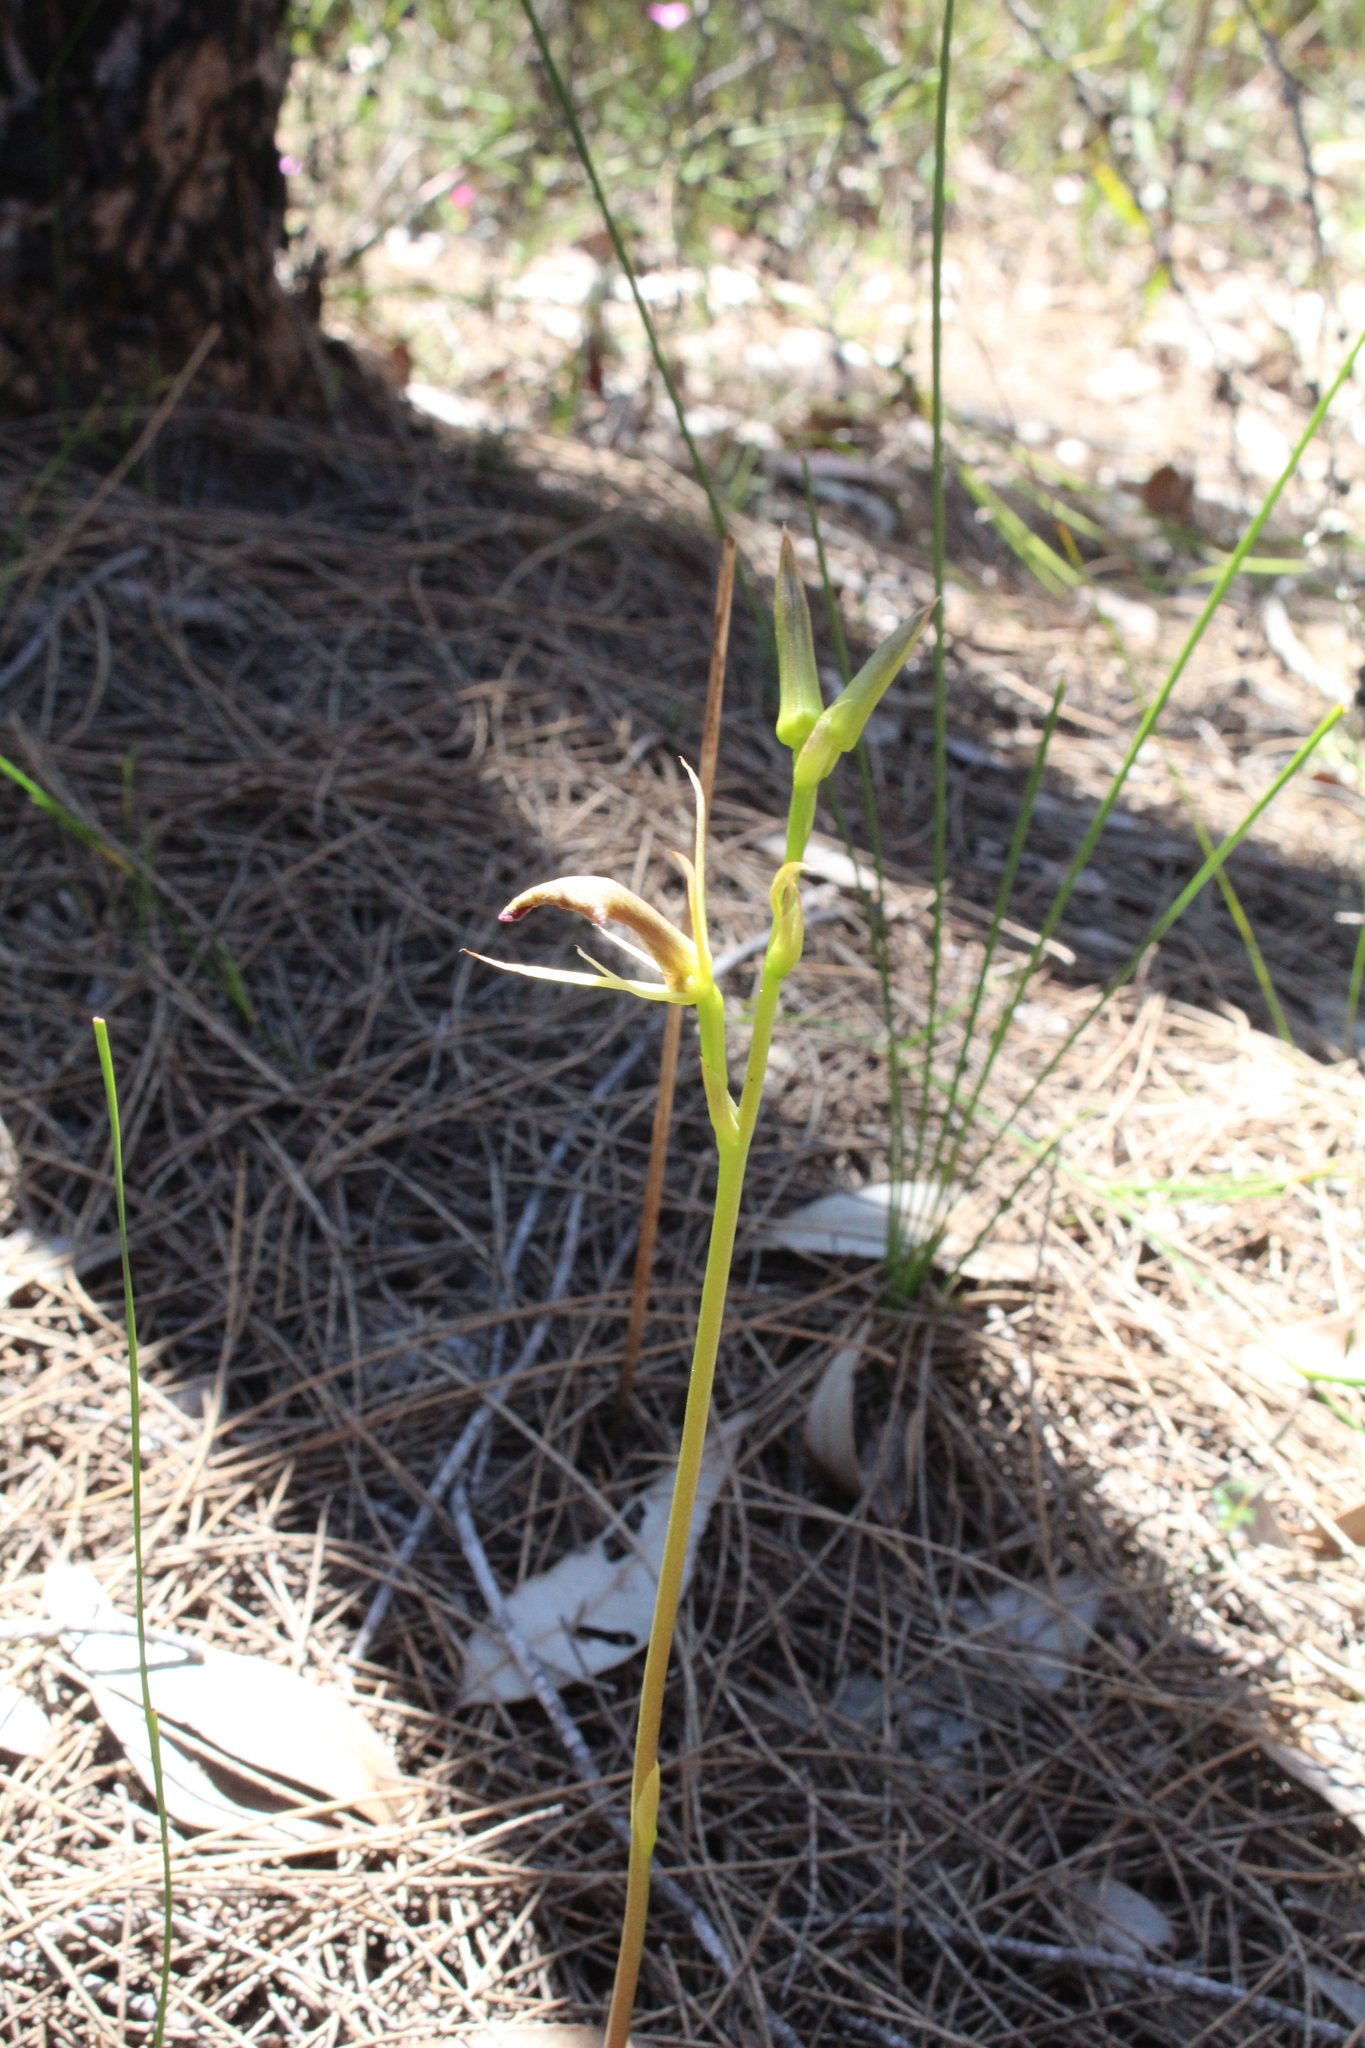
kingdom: Plantae
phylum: Tracheophyta
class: Liliopsida
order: Asparagales
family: Orchidaceae
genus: Cryptostylis
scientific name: Cryptostylis ovata
